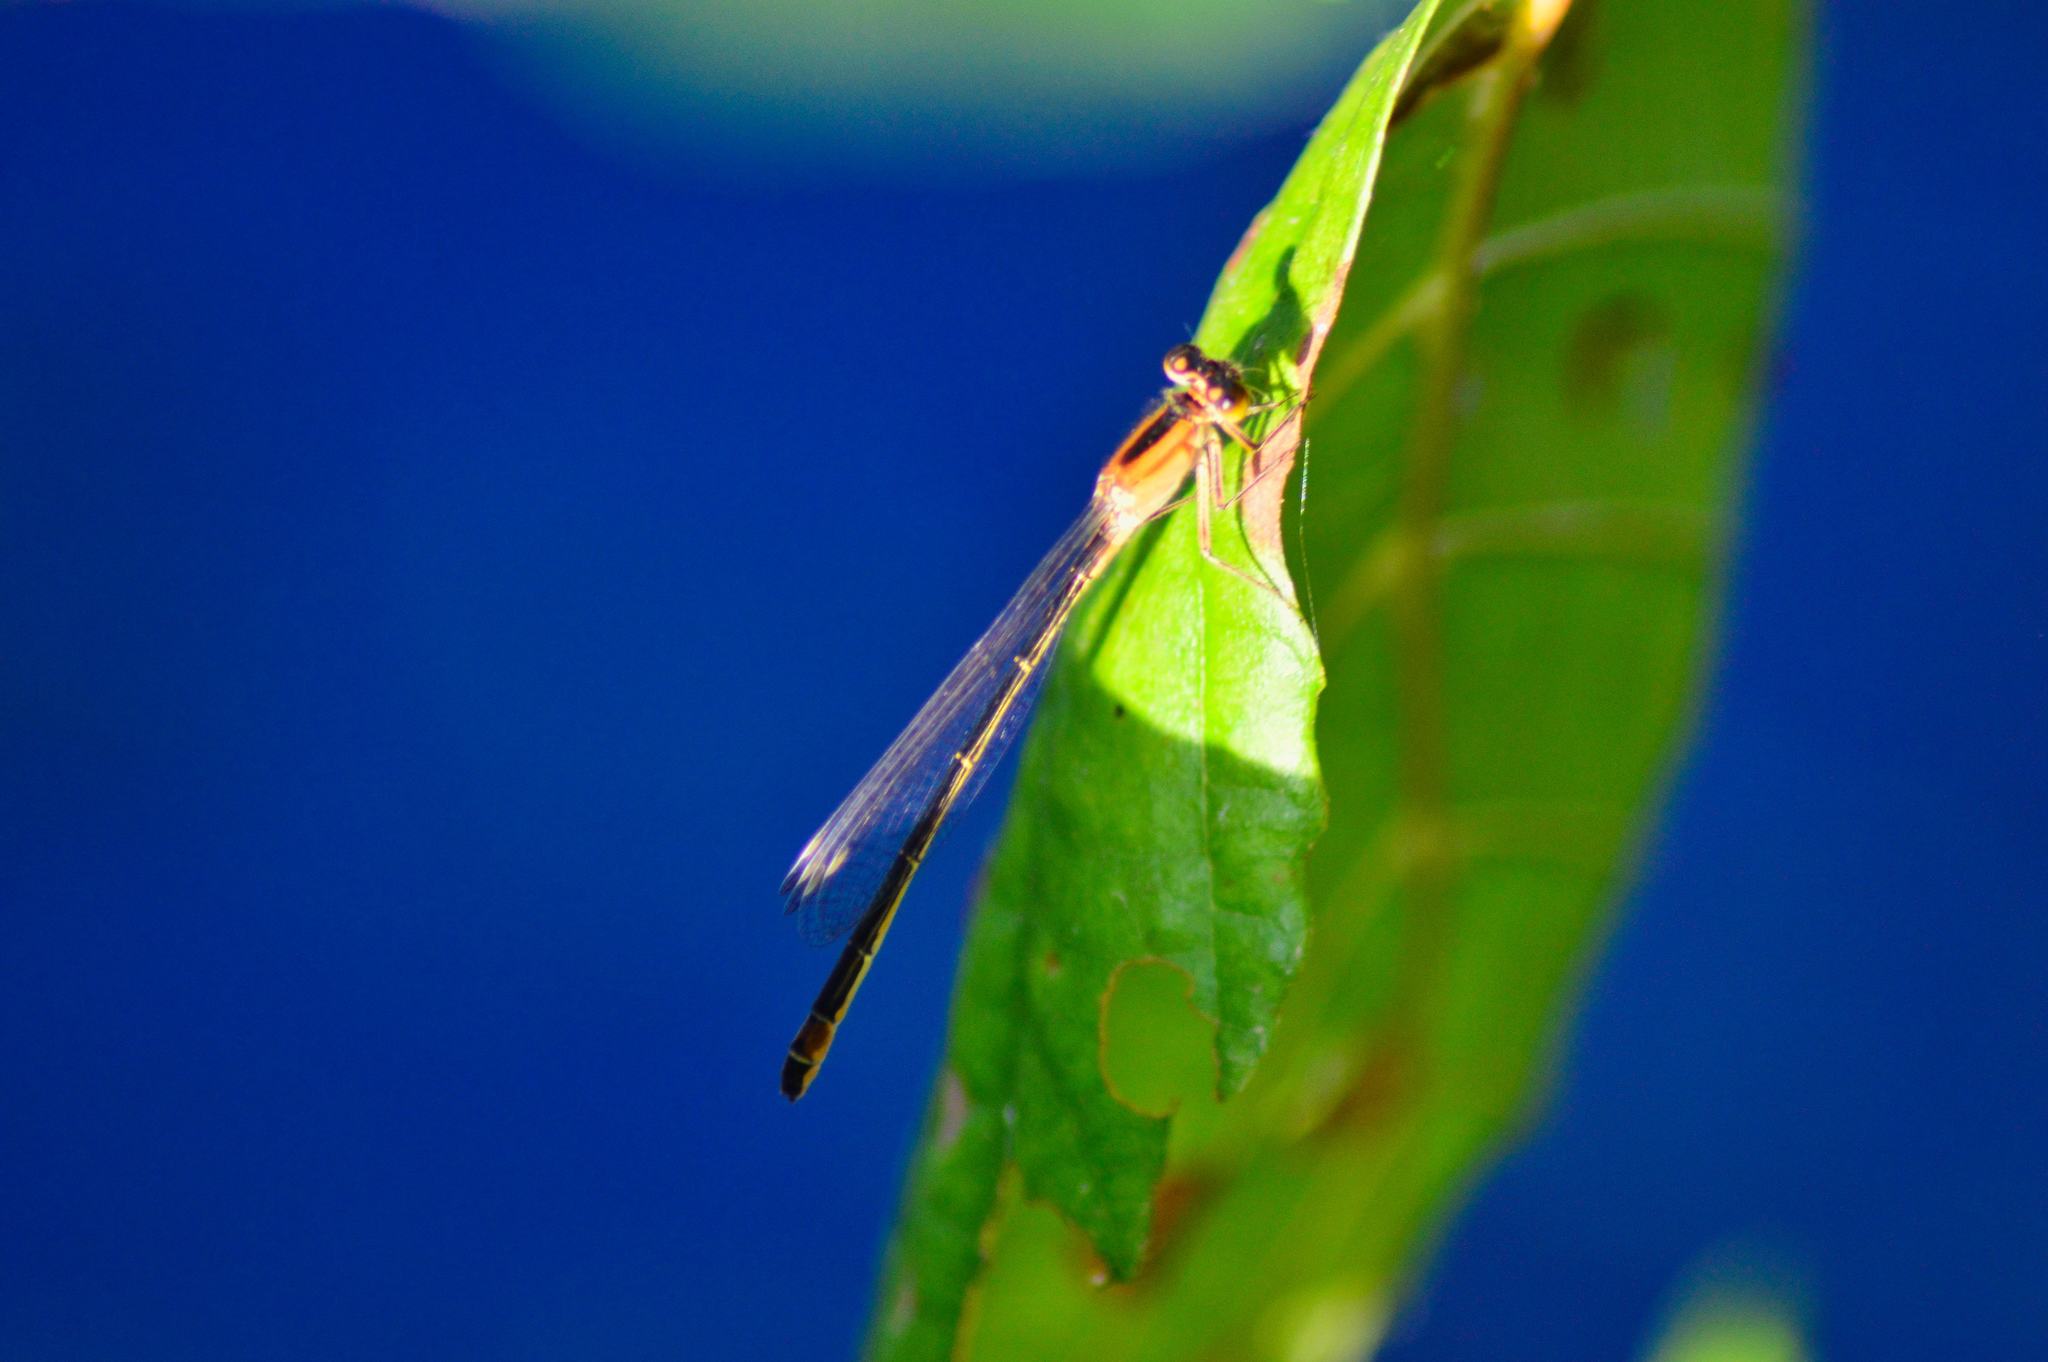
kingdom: Animalia
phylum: Arthropoda
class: Insecta
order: Odonata
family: Coenagrionidae
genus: Ischnura
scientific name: Ischnura elegans
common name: Blue-tailed damselfly
